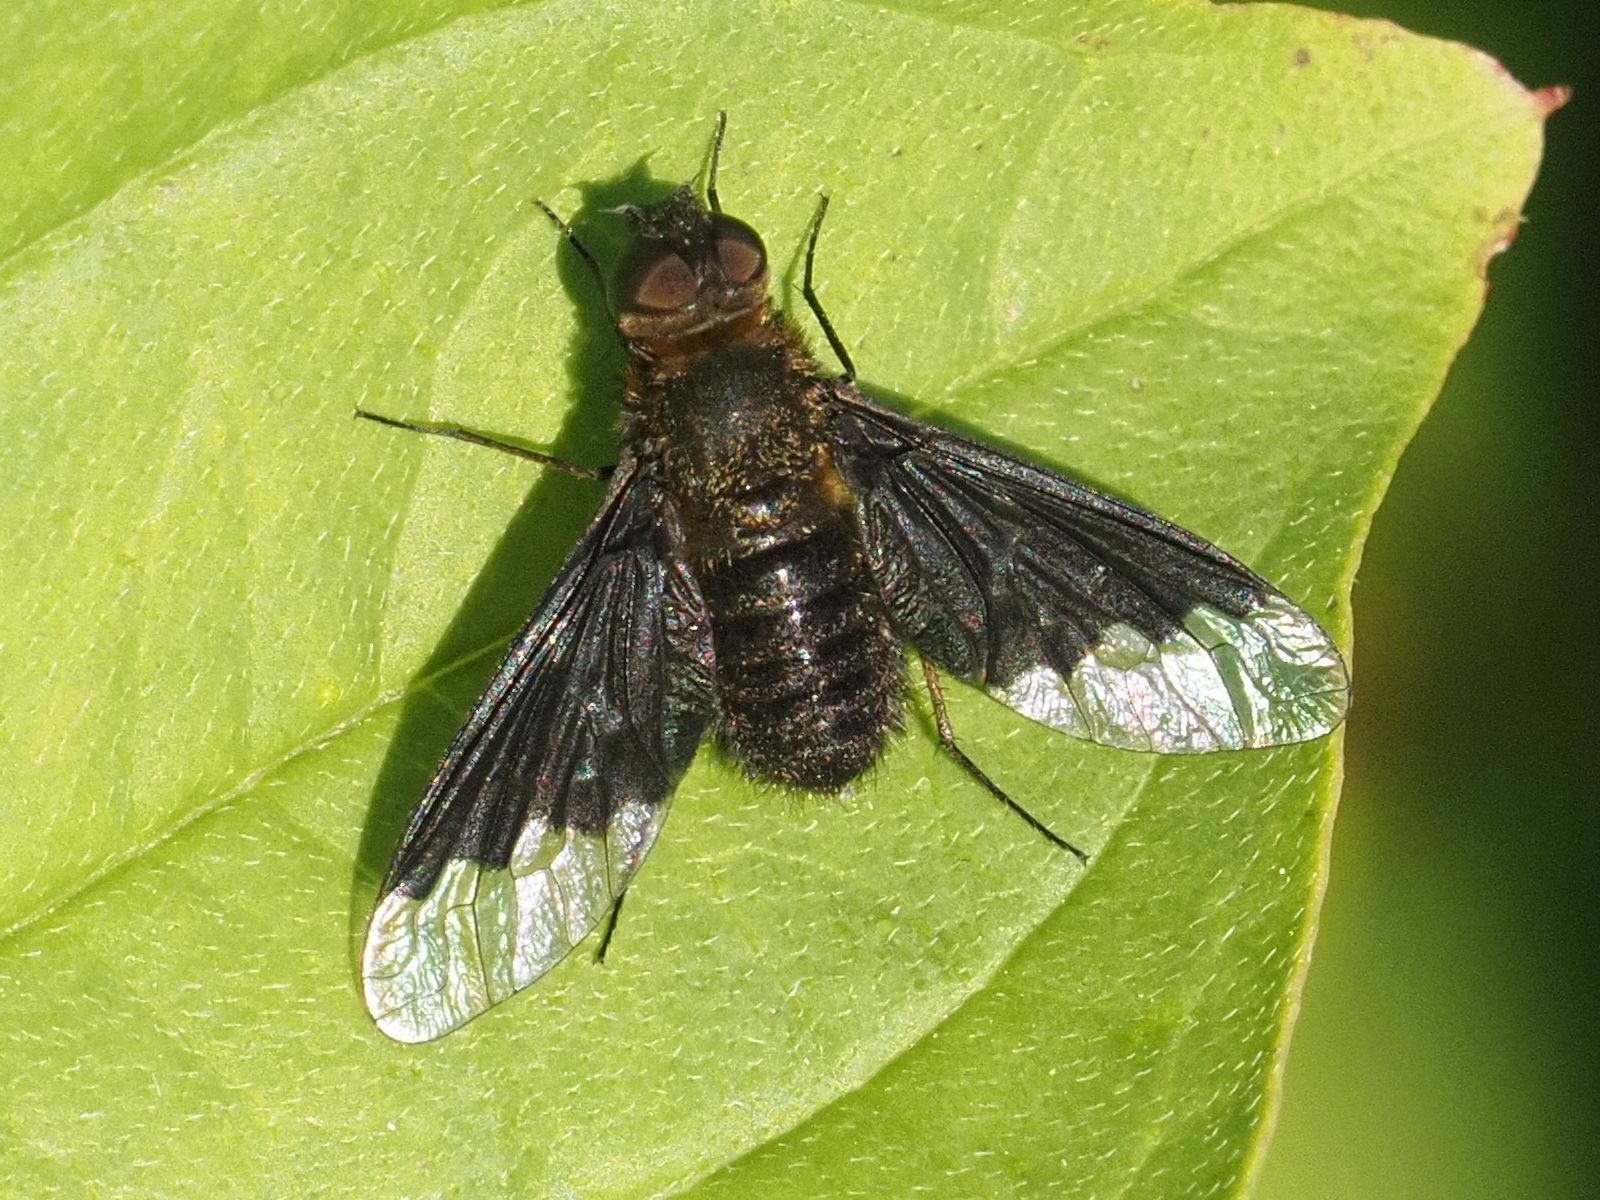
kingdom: Animalia
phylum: Arthropoda
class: Insecta
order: Diptera
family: Bombyliidae
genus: Hemipenthes
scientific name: Hemipenthes morio
